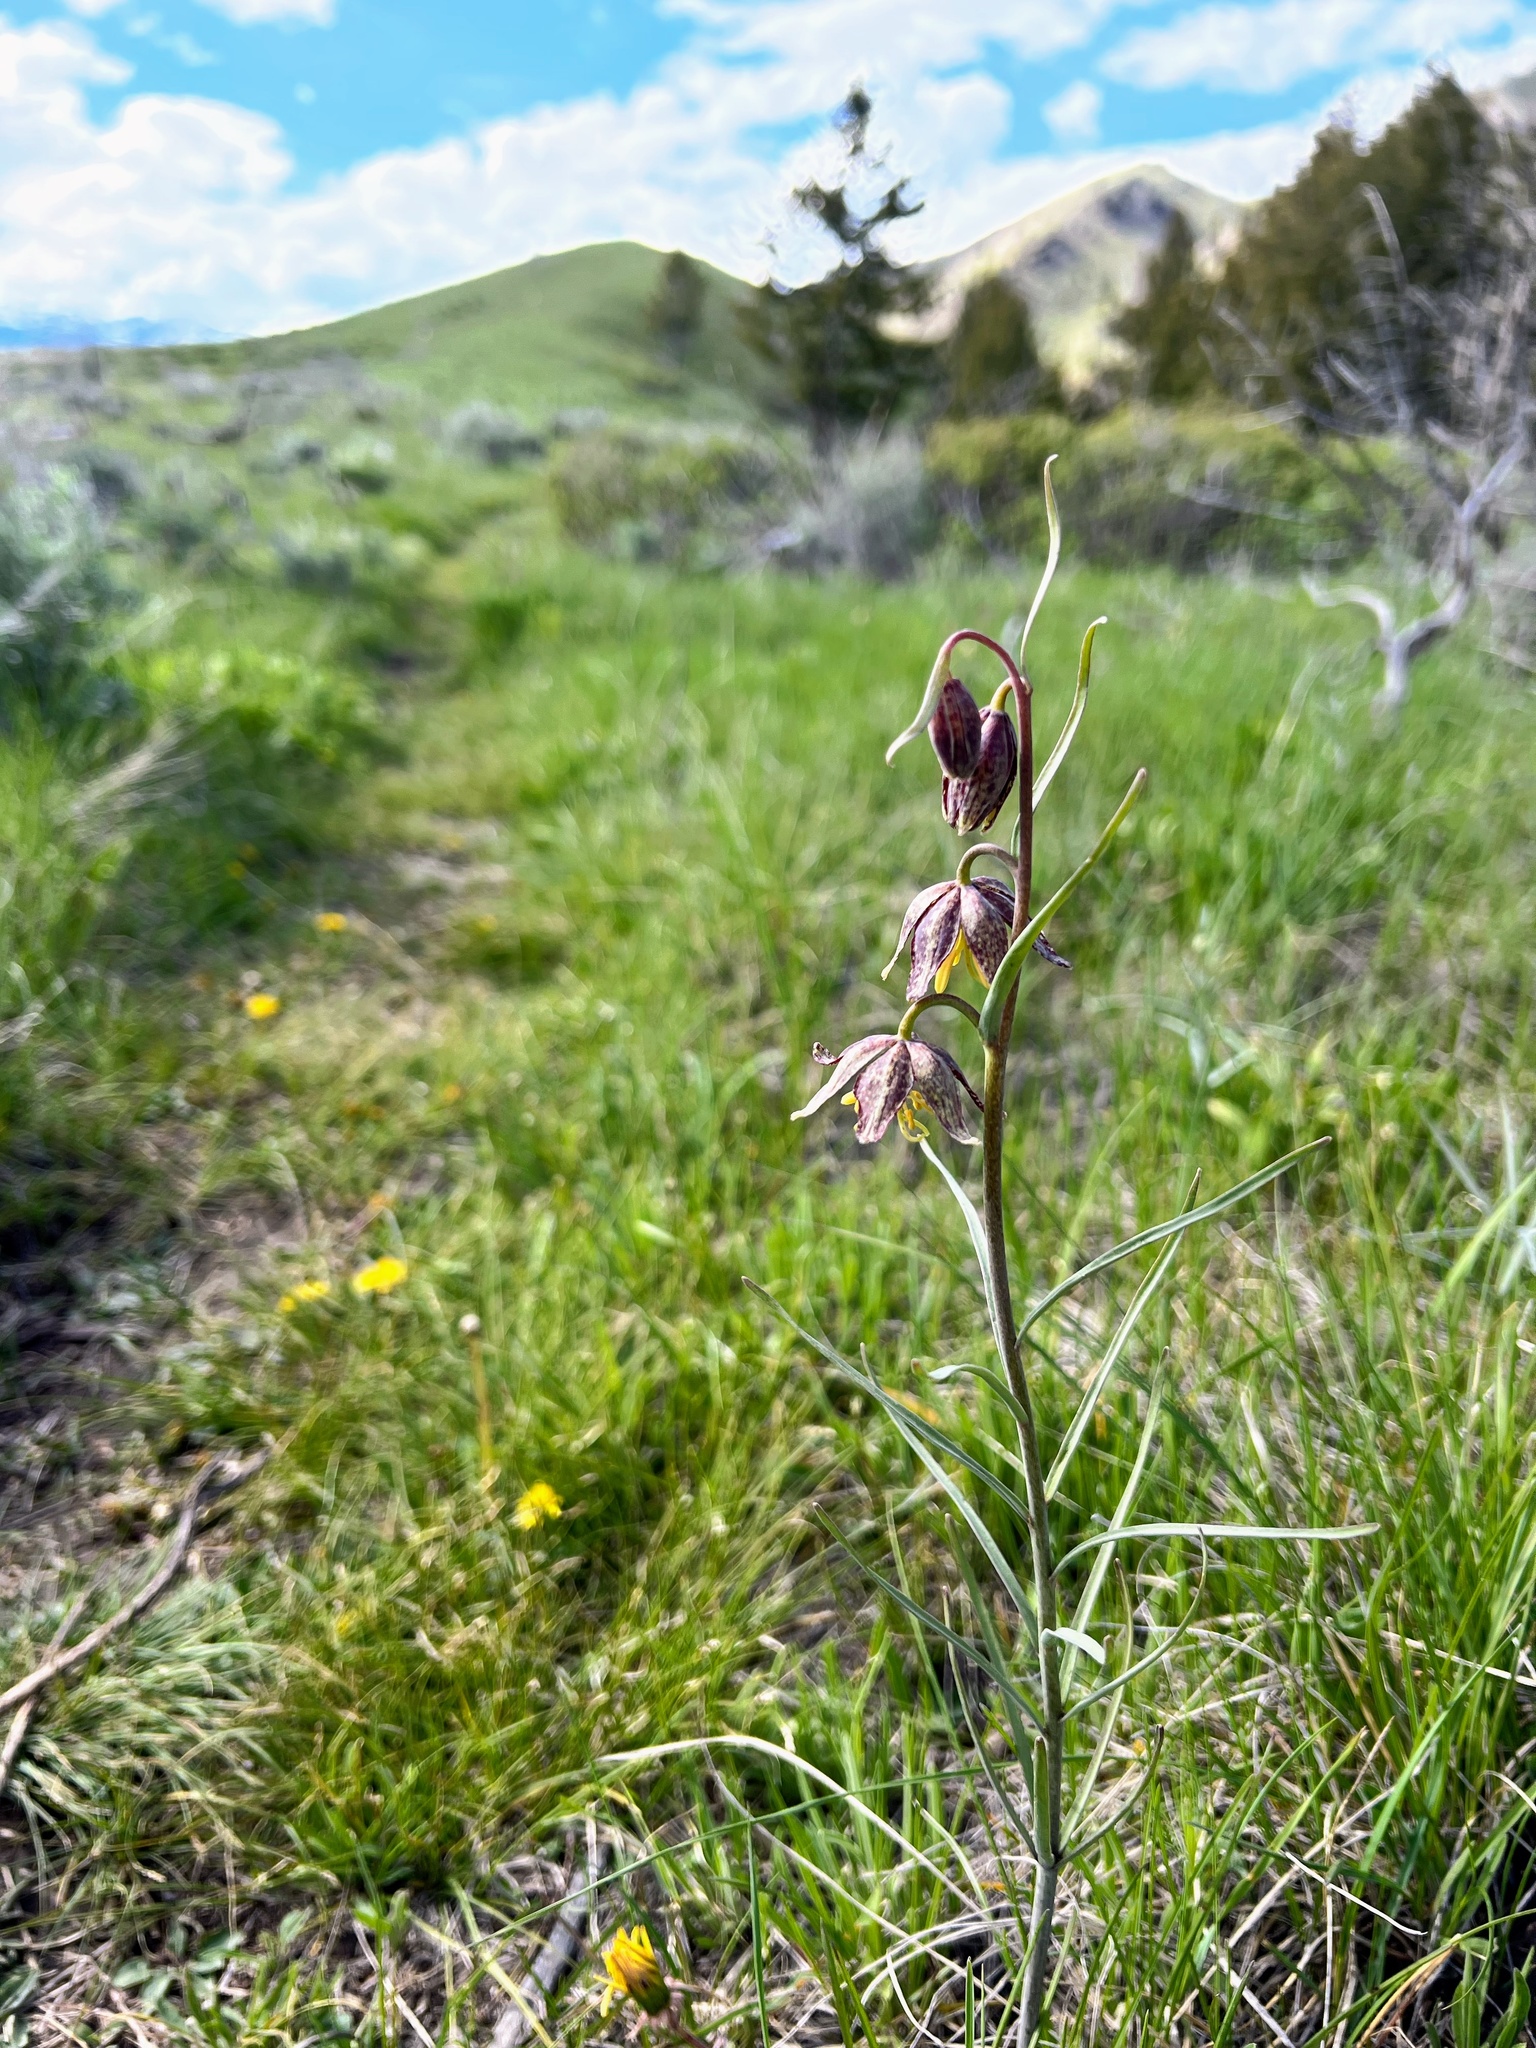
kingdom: Plantae
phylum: Tracheophyta
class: Liliopsida
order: Liliales
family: Liliaceae
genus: Fritillaria
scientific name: Fritillaria atropurpurea
